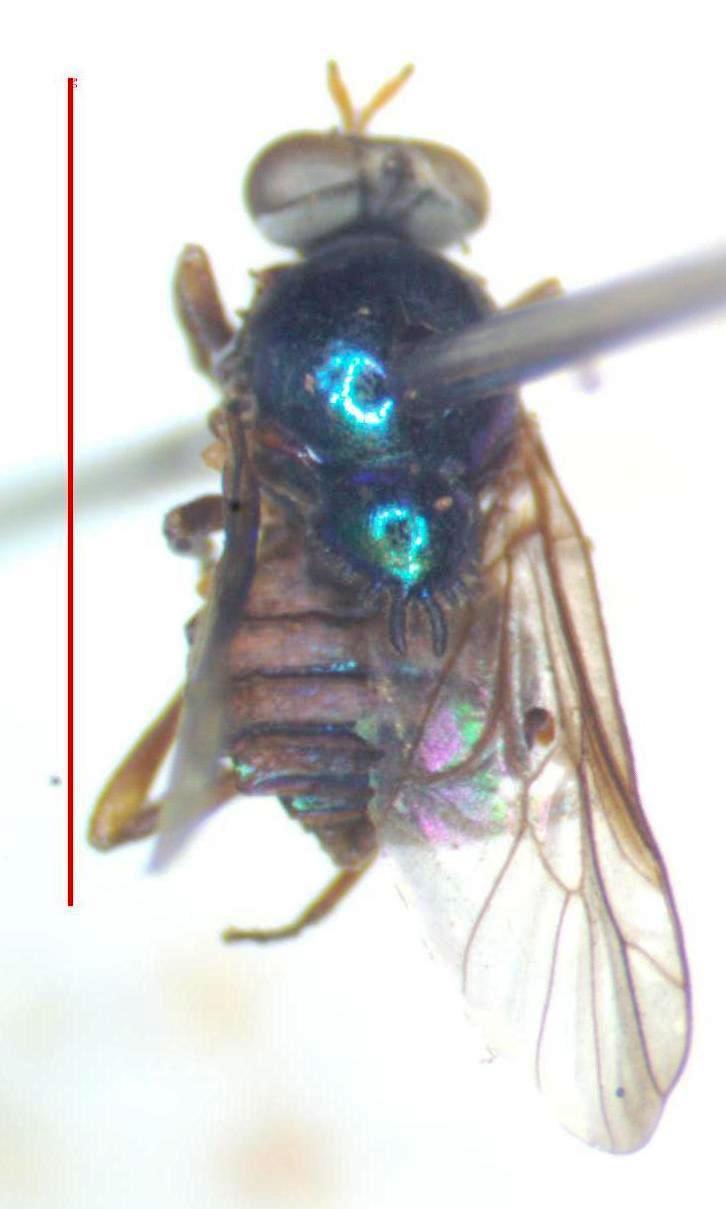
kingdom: Animalia
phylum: Arthropoda
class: Insecta
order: Diptera
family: Stratiomyidae
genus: Heteracanthia
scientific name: Heteracanthia ruficornis
